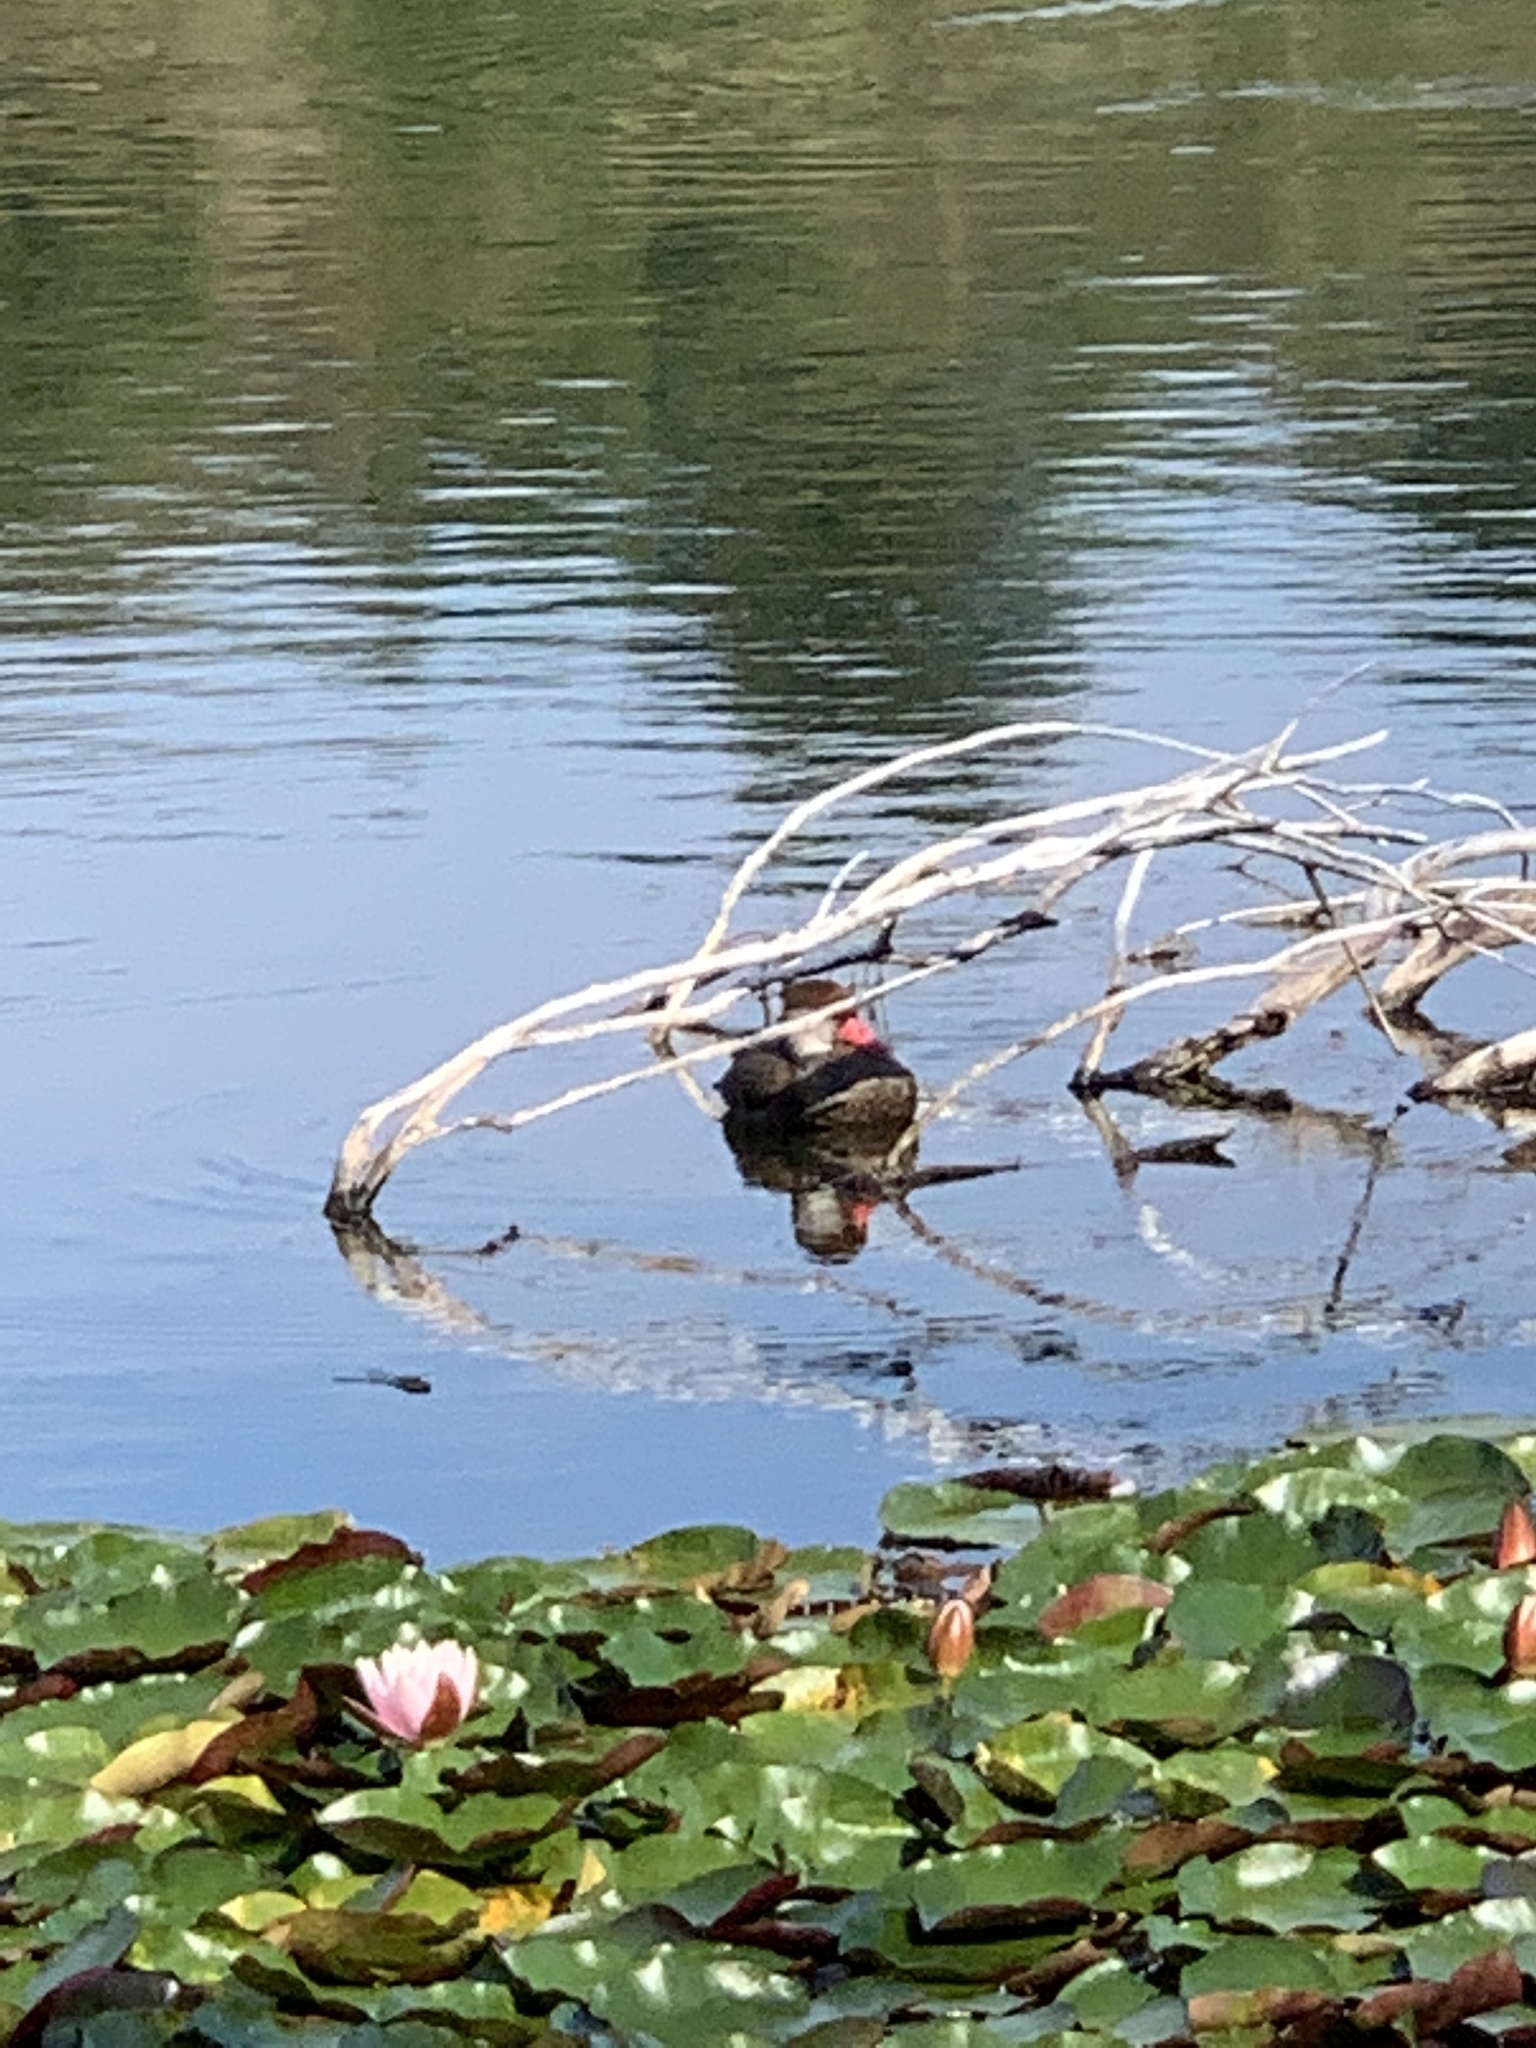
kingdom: Animalia
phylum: Chordata
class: Aves
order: Anseriformes
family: Anatidae
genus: Netta
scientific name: Netta rufina
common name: Red-crested pochard
